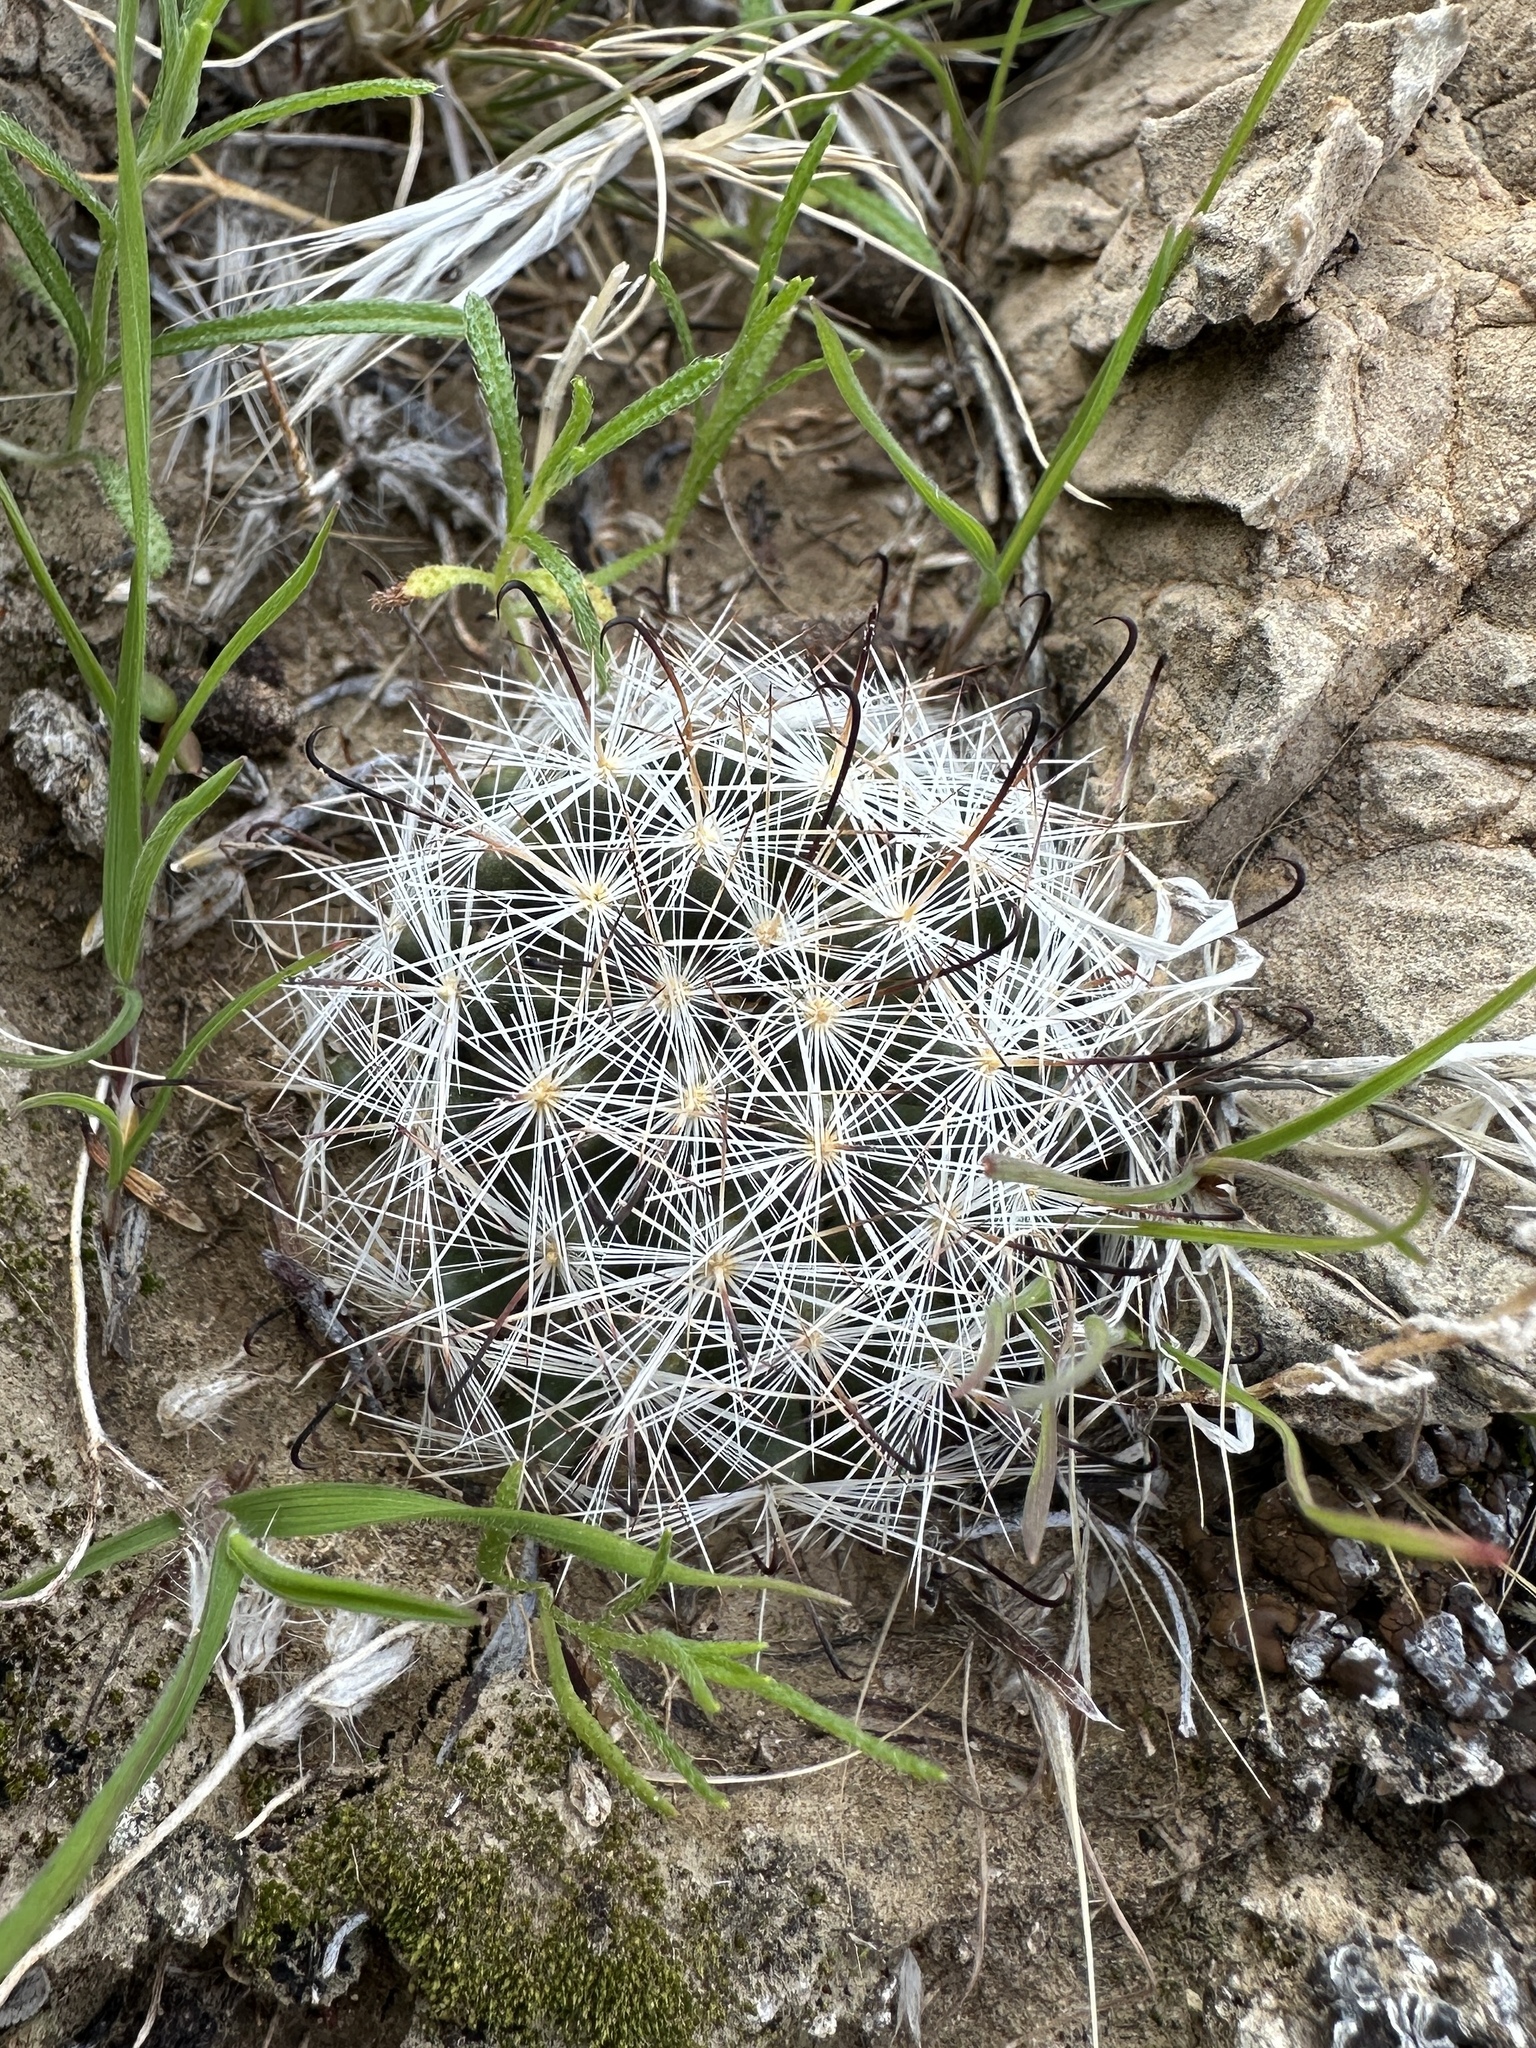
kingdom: Plantae
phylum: Tracheophyta
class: Magnoliopsida
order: Caryophyllales
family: Cactaceae
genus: Cochemiea
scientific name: Cochemiea tetrancistra
